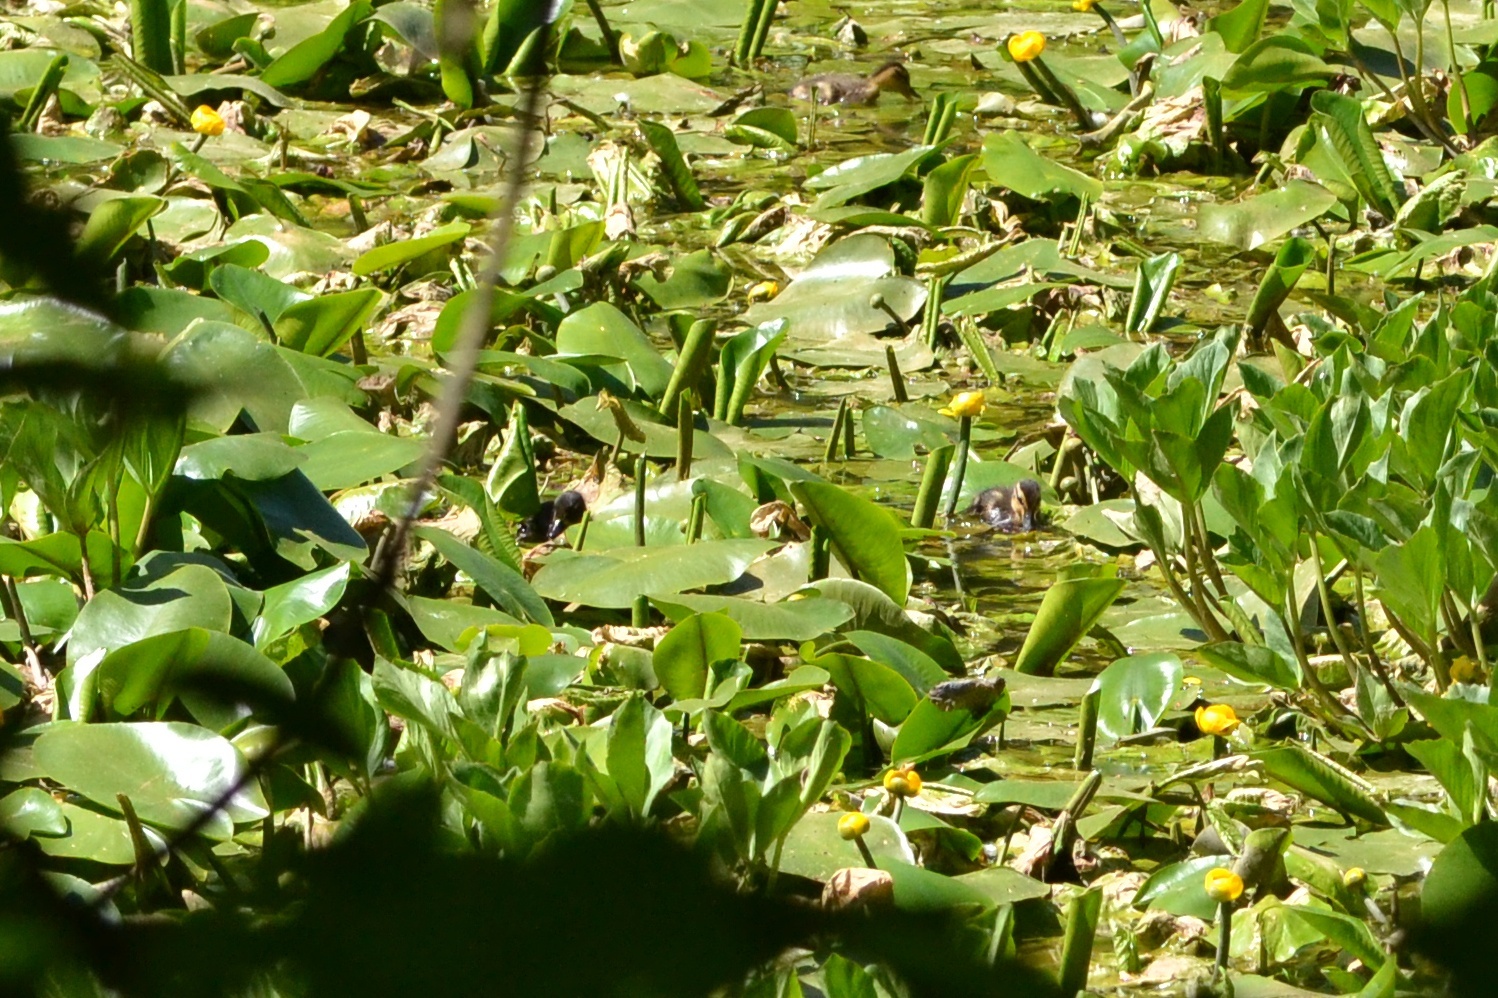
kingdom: Plantae
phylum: Tracheophyta
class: Magnoliopsida
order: Nymphaeales
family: Nymphaeaceae
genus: Nuphar
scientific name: Nuphar lutea
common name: Yellow water-lily
